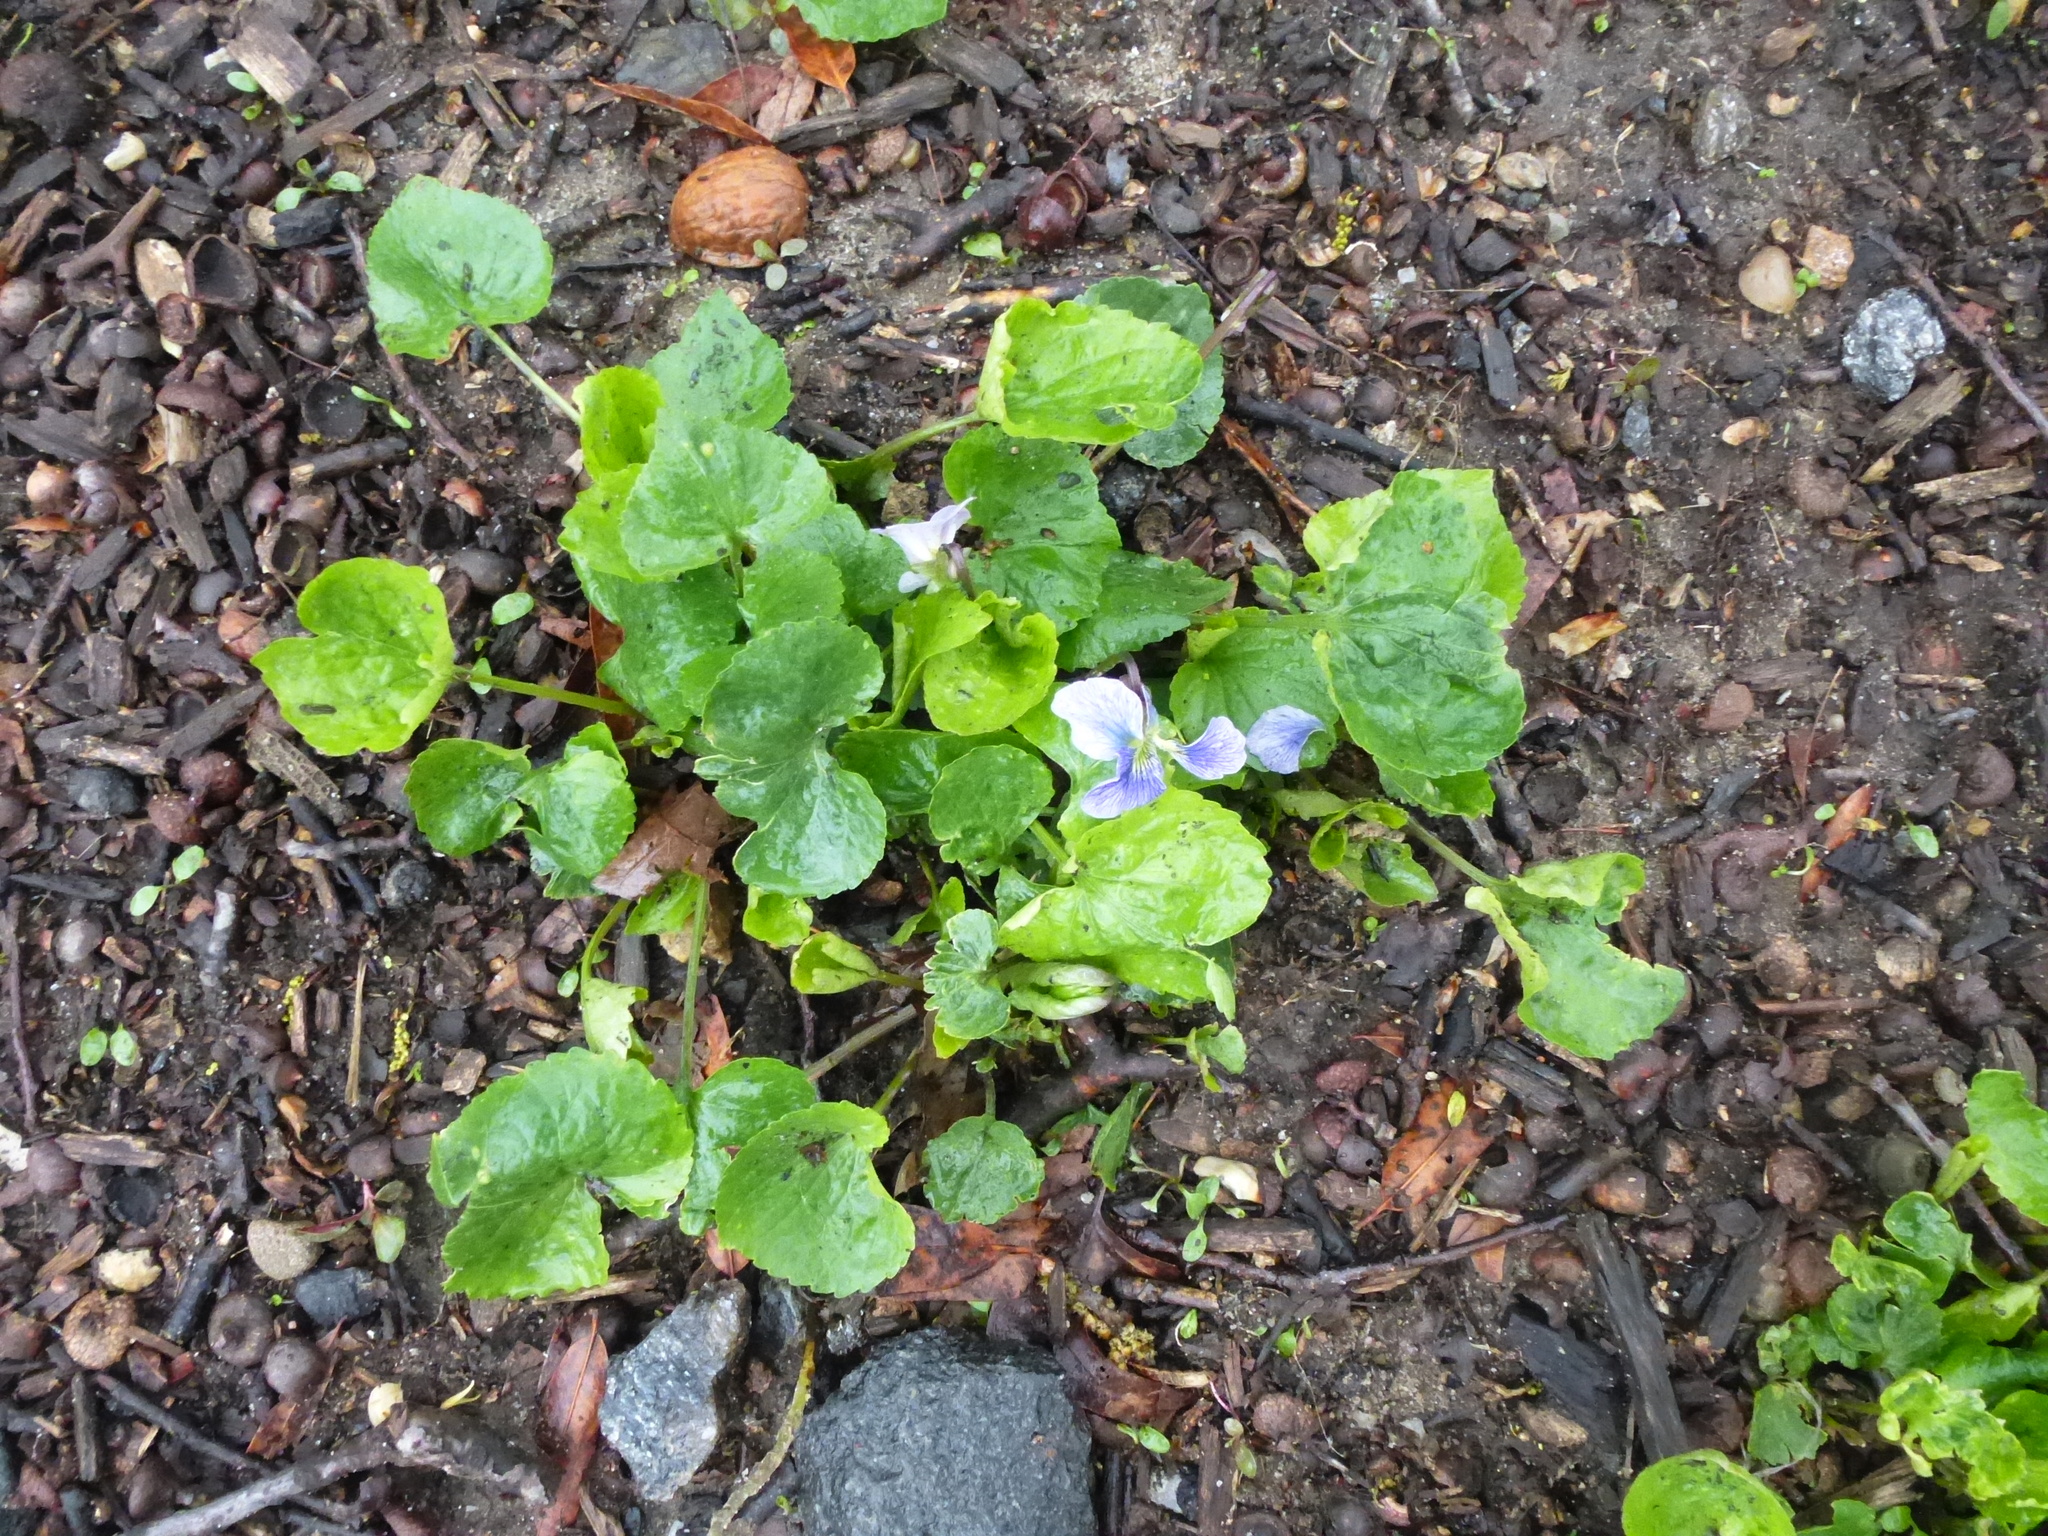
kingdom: Plantae
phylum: Tracheophyta
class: Magnoliopsida
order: Malpighiales
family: Violaceae
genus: Viola
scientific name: Viola sororia
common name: Dooryard violet
